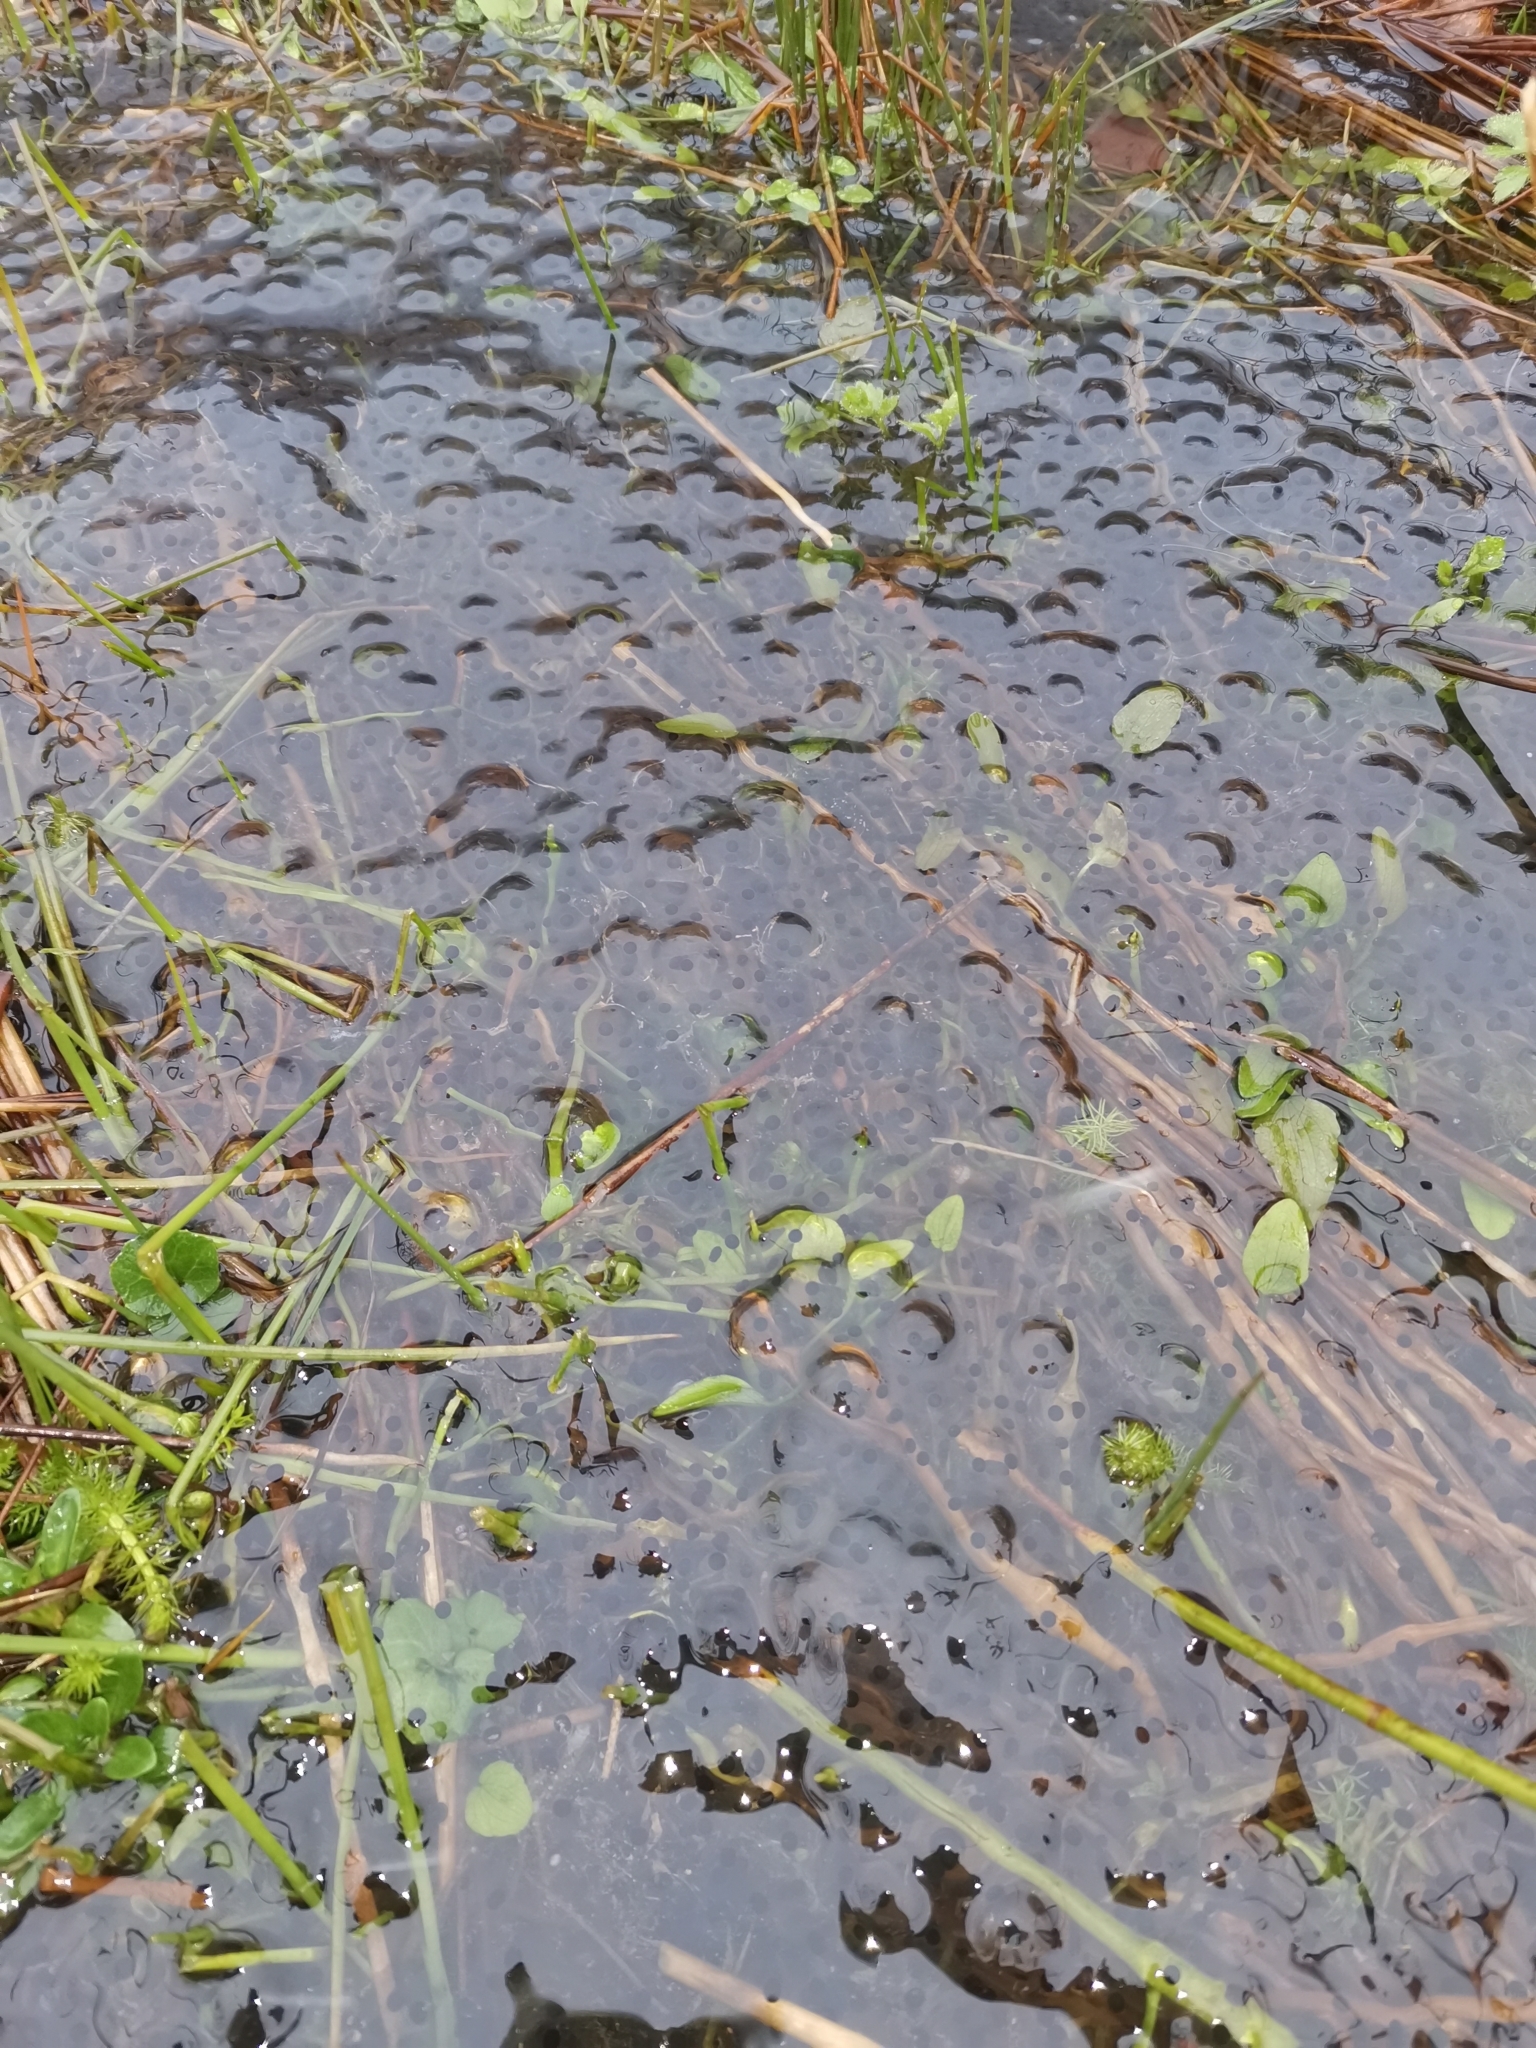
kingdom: Animalia
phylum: Chordata
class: Amphibia
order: Anura
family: Ranidae
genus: Rana
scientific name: Rana temporaria
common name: Common frog
